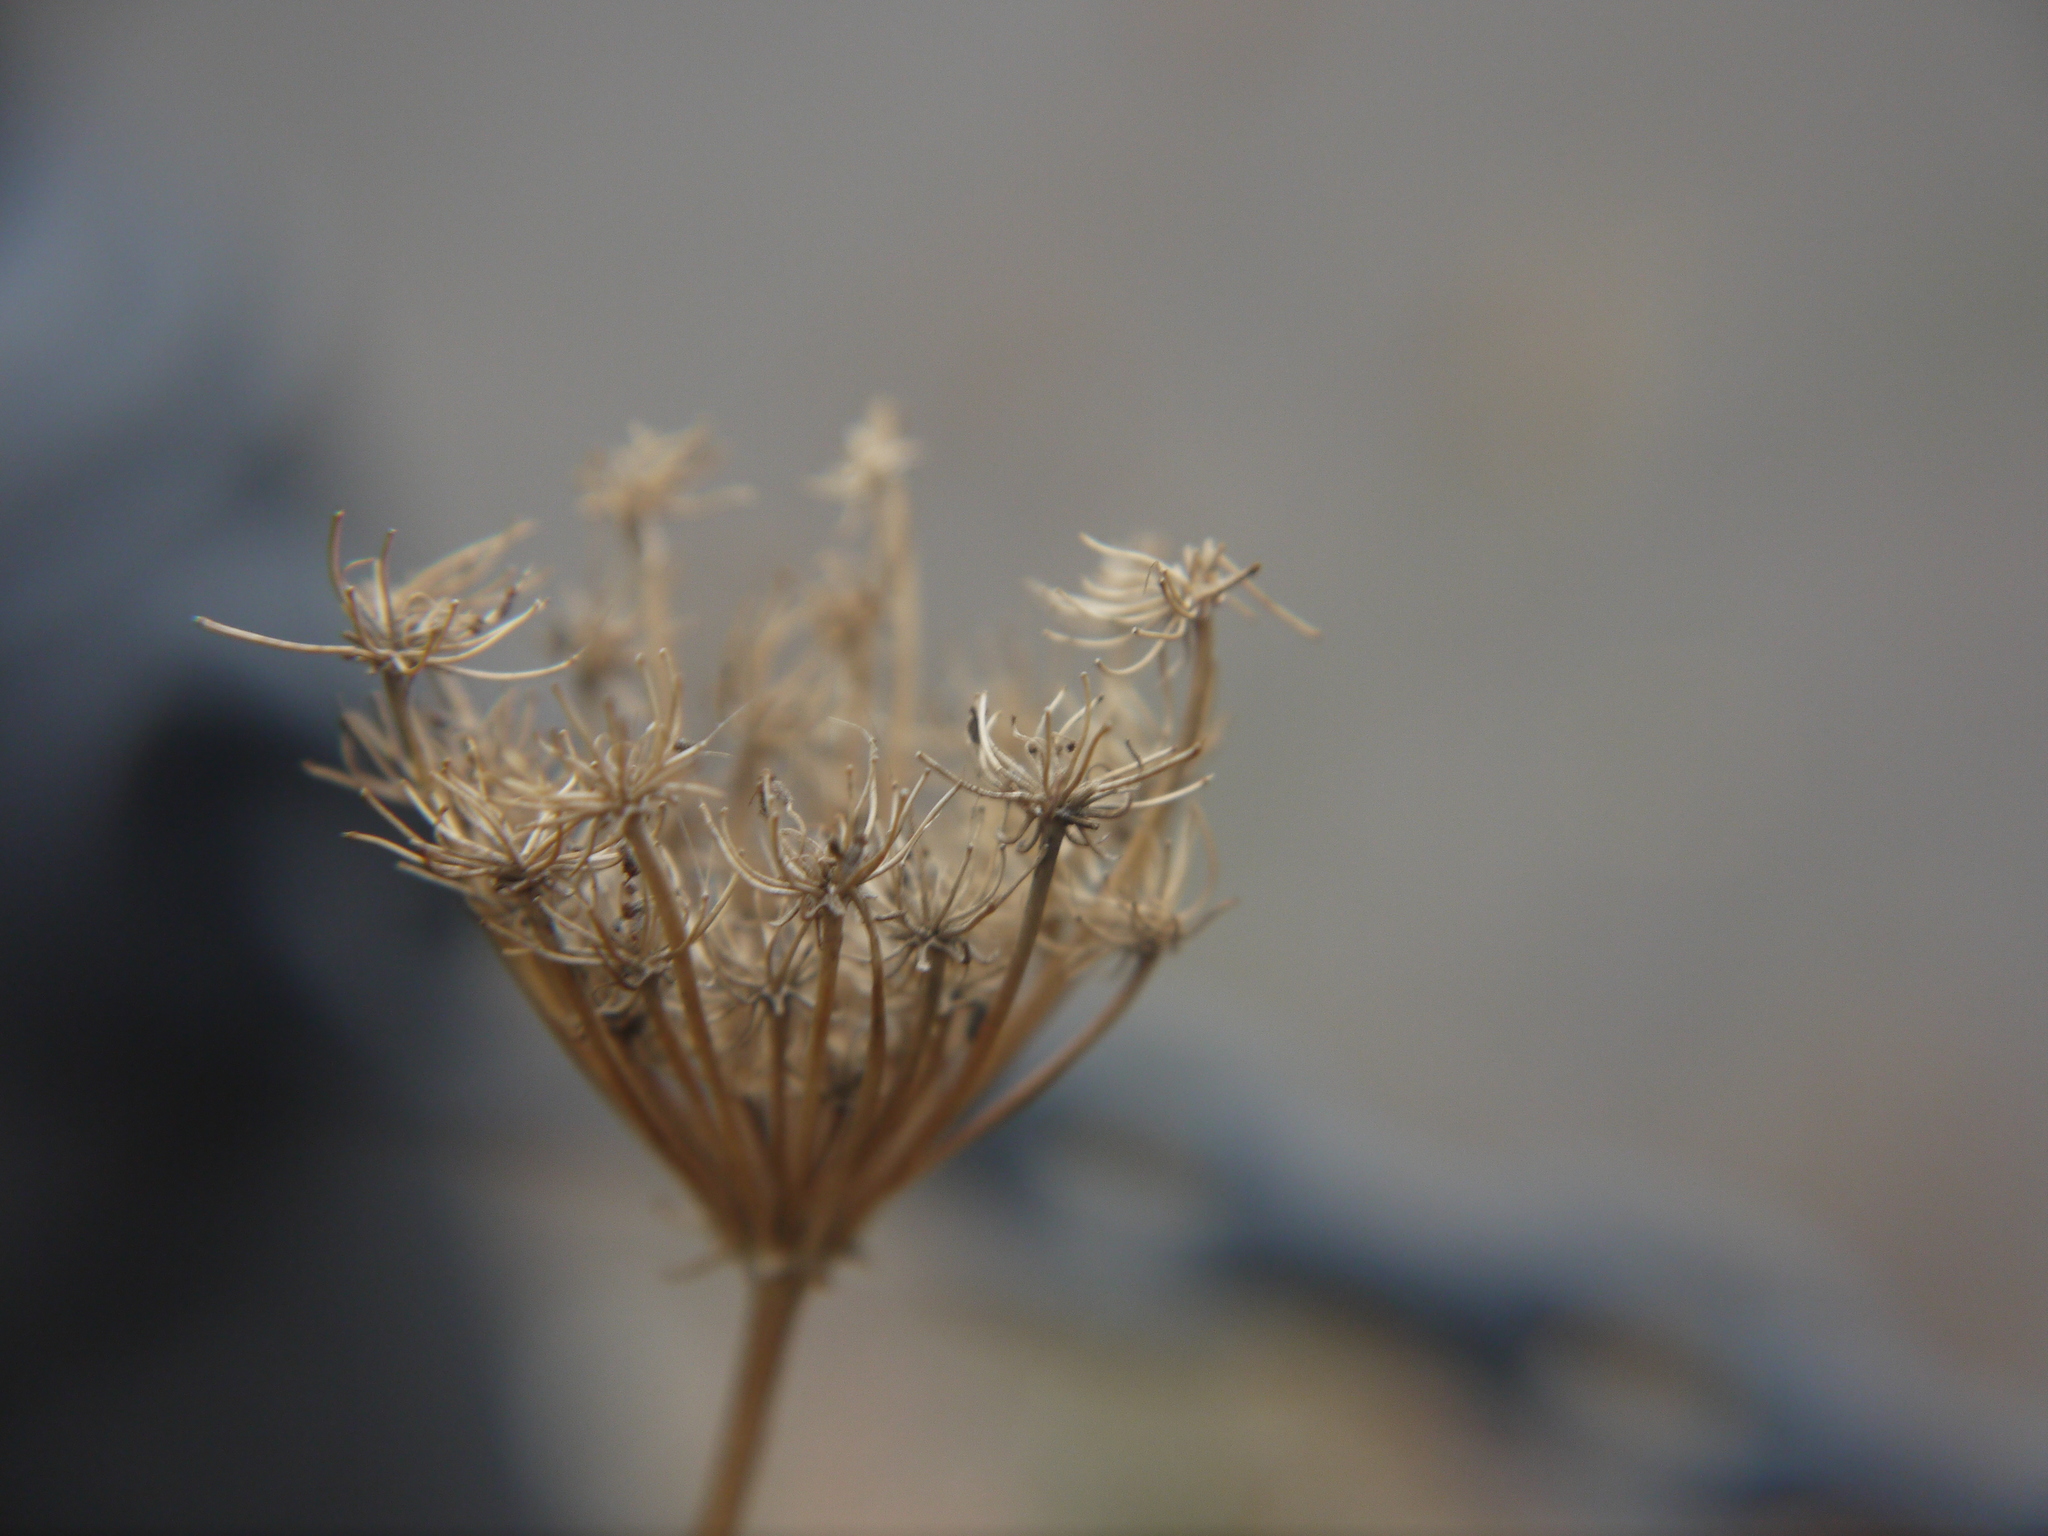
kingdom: Plantae
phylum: Tracheophyta
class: Magnoliopsida
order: Apiales
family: Apiaceae
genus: Daucus
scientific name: Daucus carota
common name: Wild carrot
